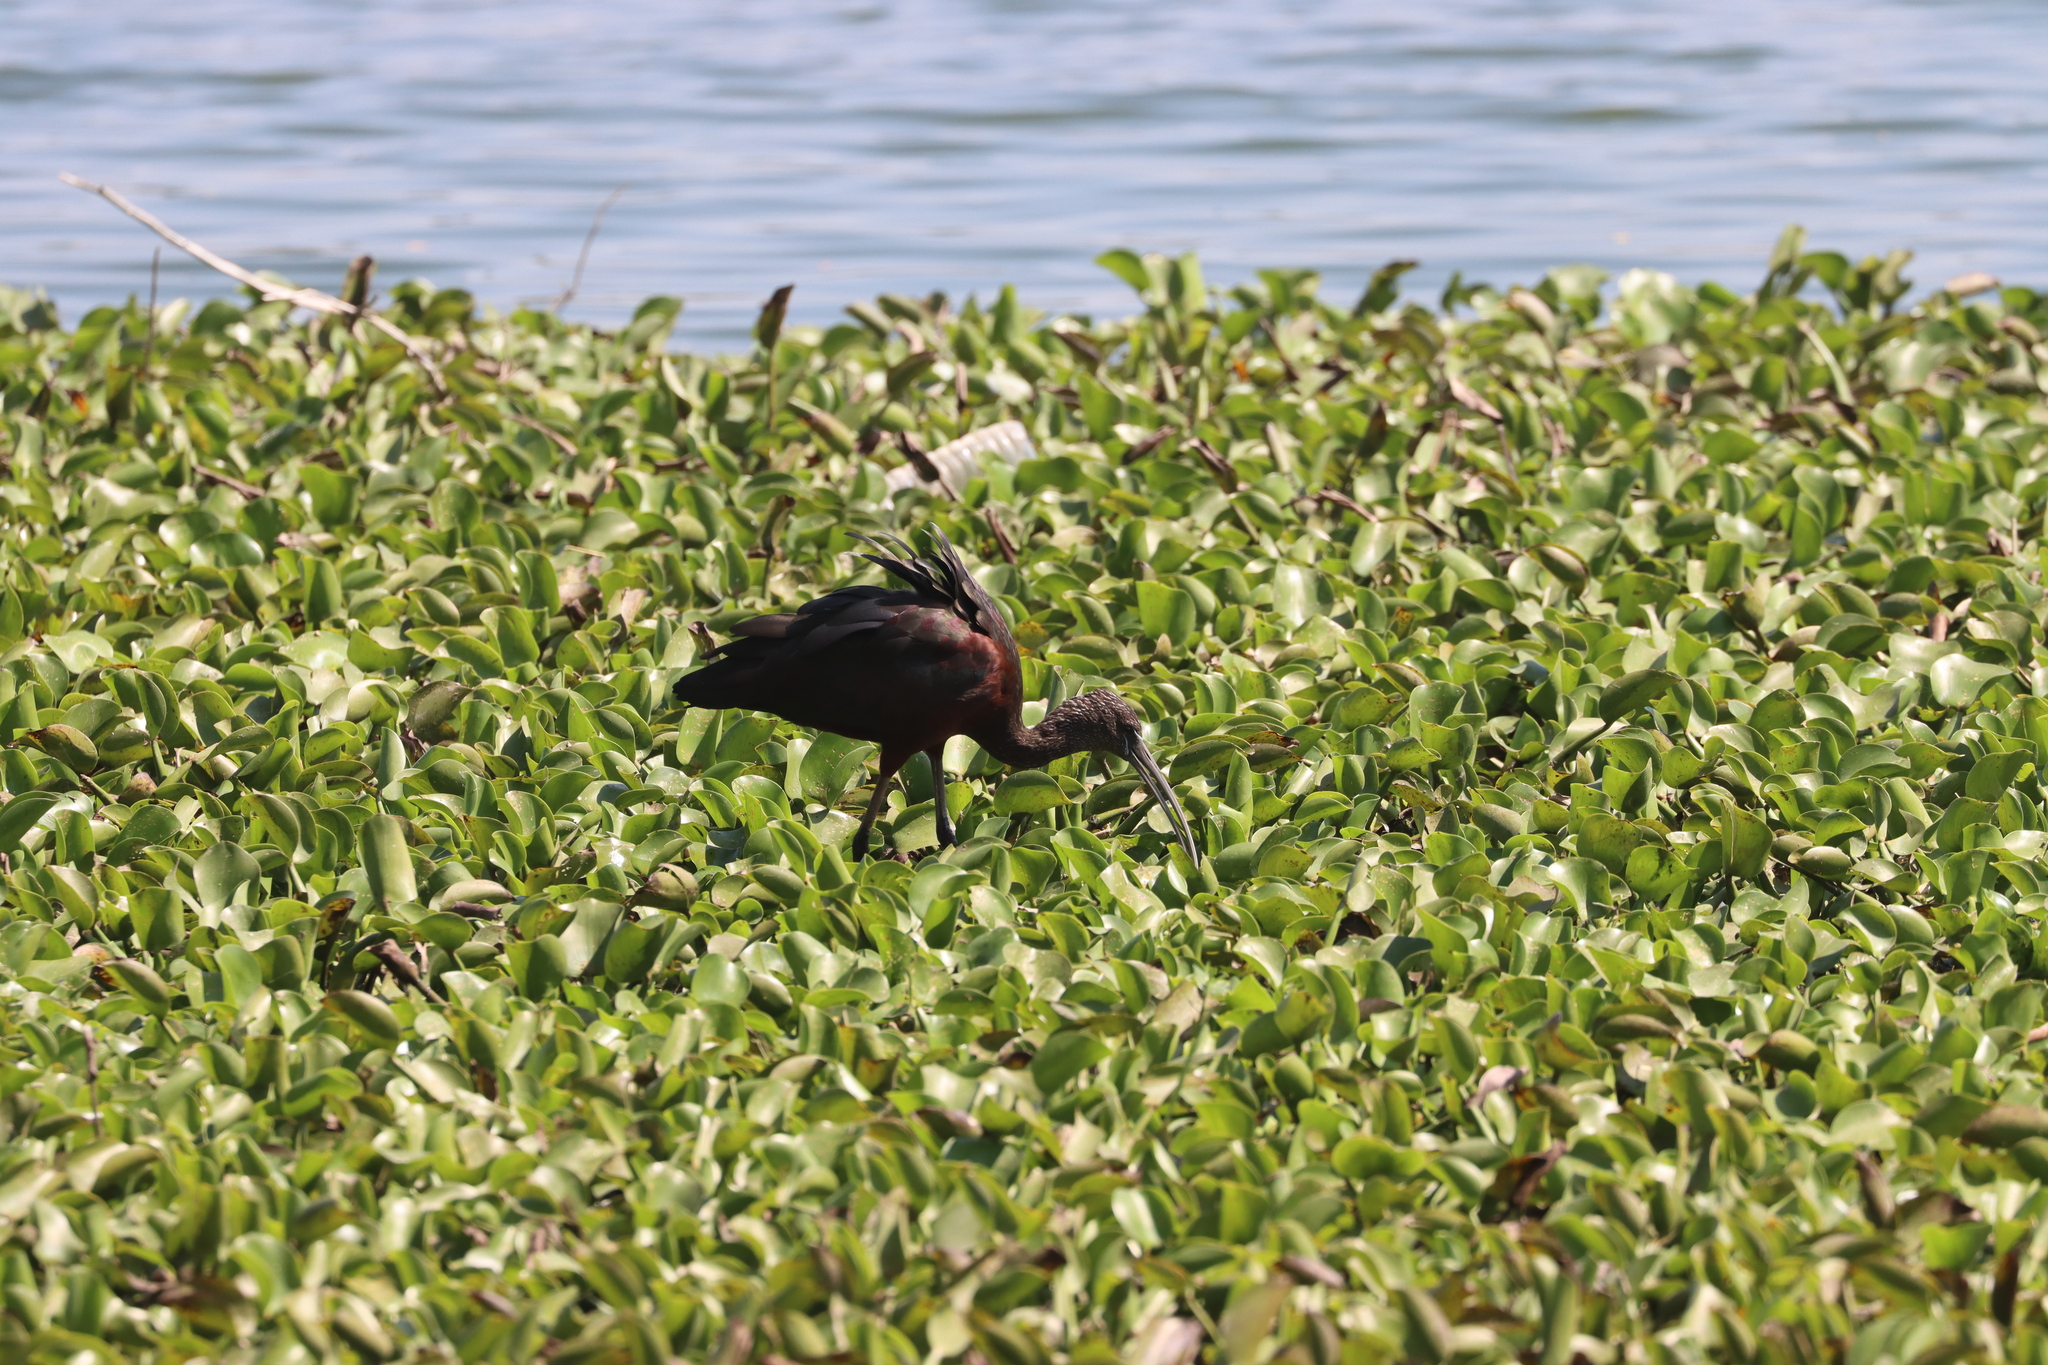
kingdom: Animalia
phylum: Chordata
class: Aves
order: Pelecaniformes
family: Threskiornithidae
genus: Plegadis
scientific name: Plegadis falcinellus
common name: Glossy ibis
